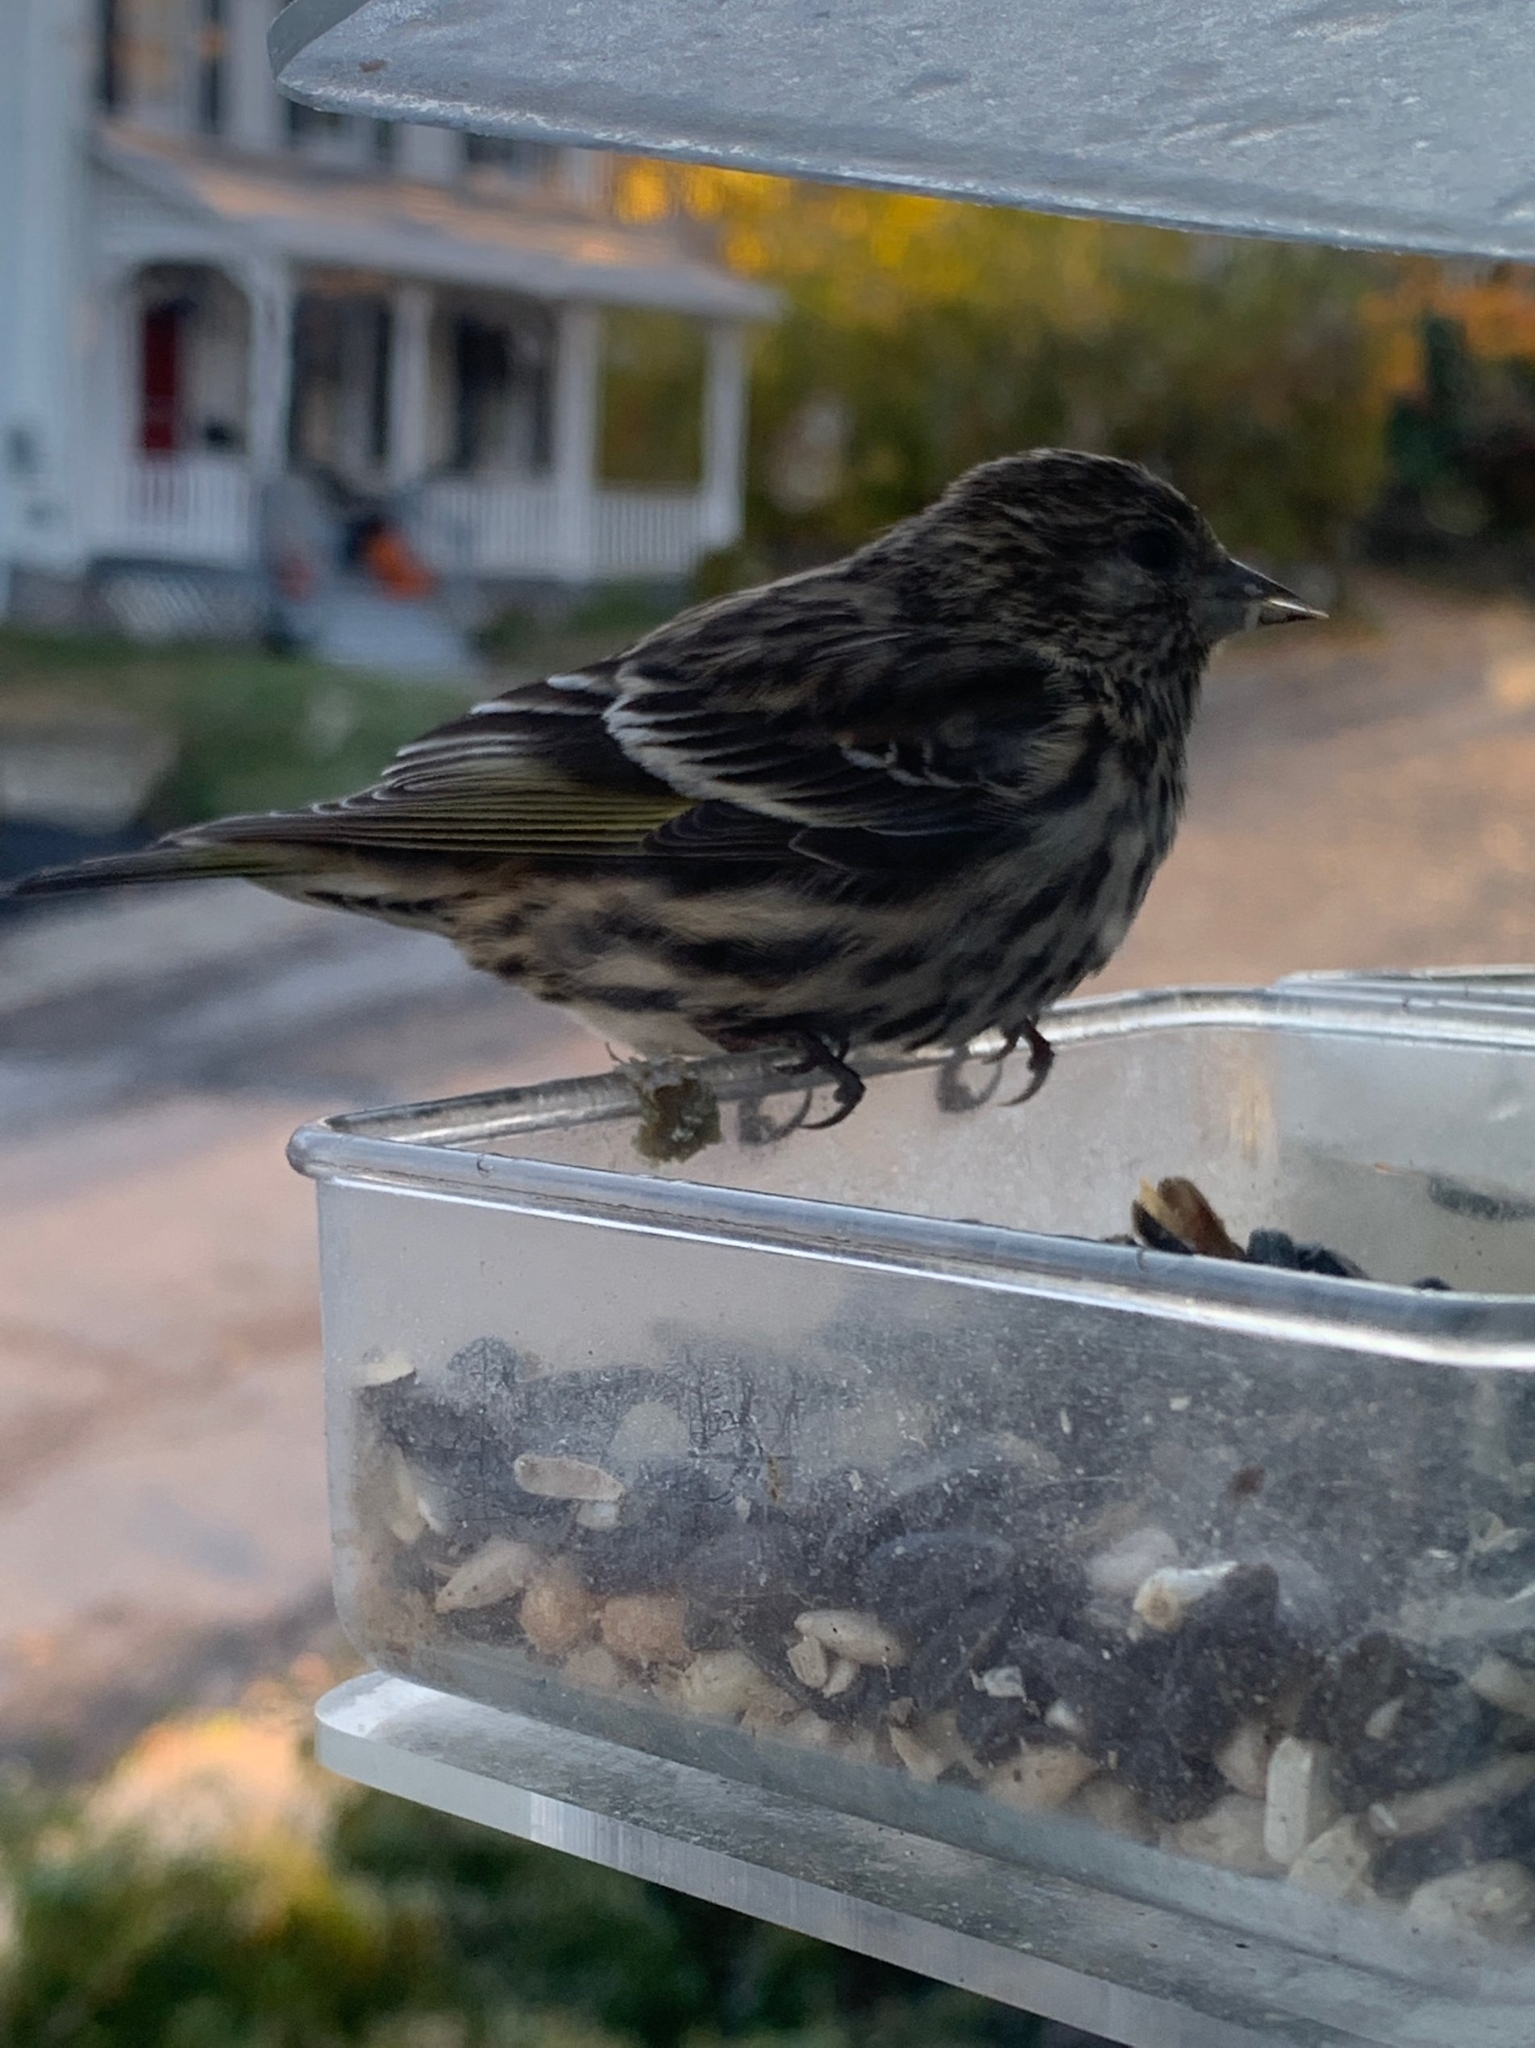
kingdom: Animalia
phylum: Chordata
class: Aves
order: Passeriformes
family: Fringillidae
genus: Spinus
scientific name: Spinus pinus
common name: Pine siskin
